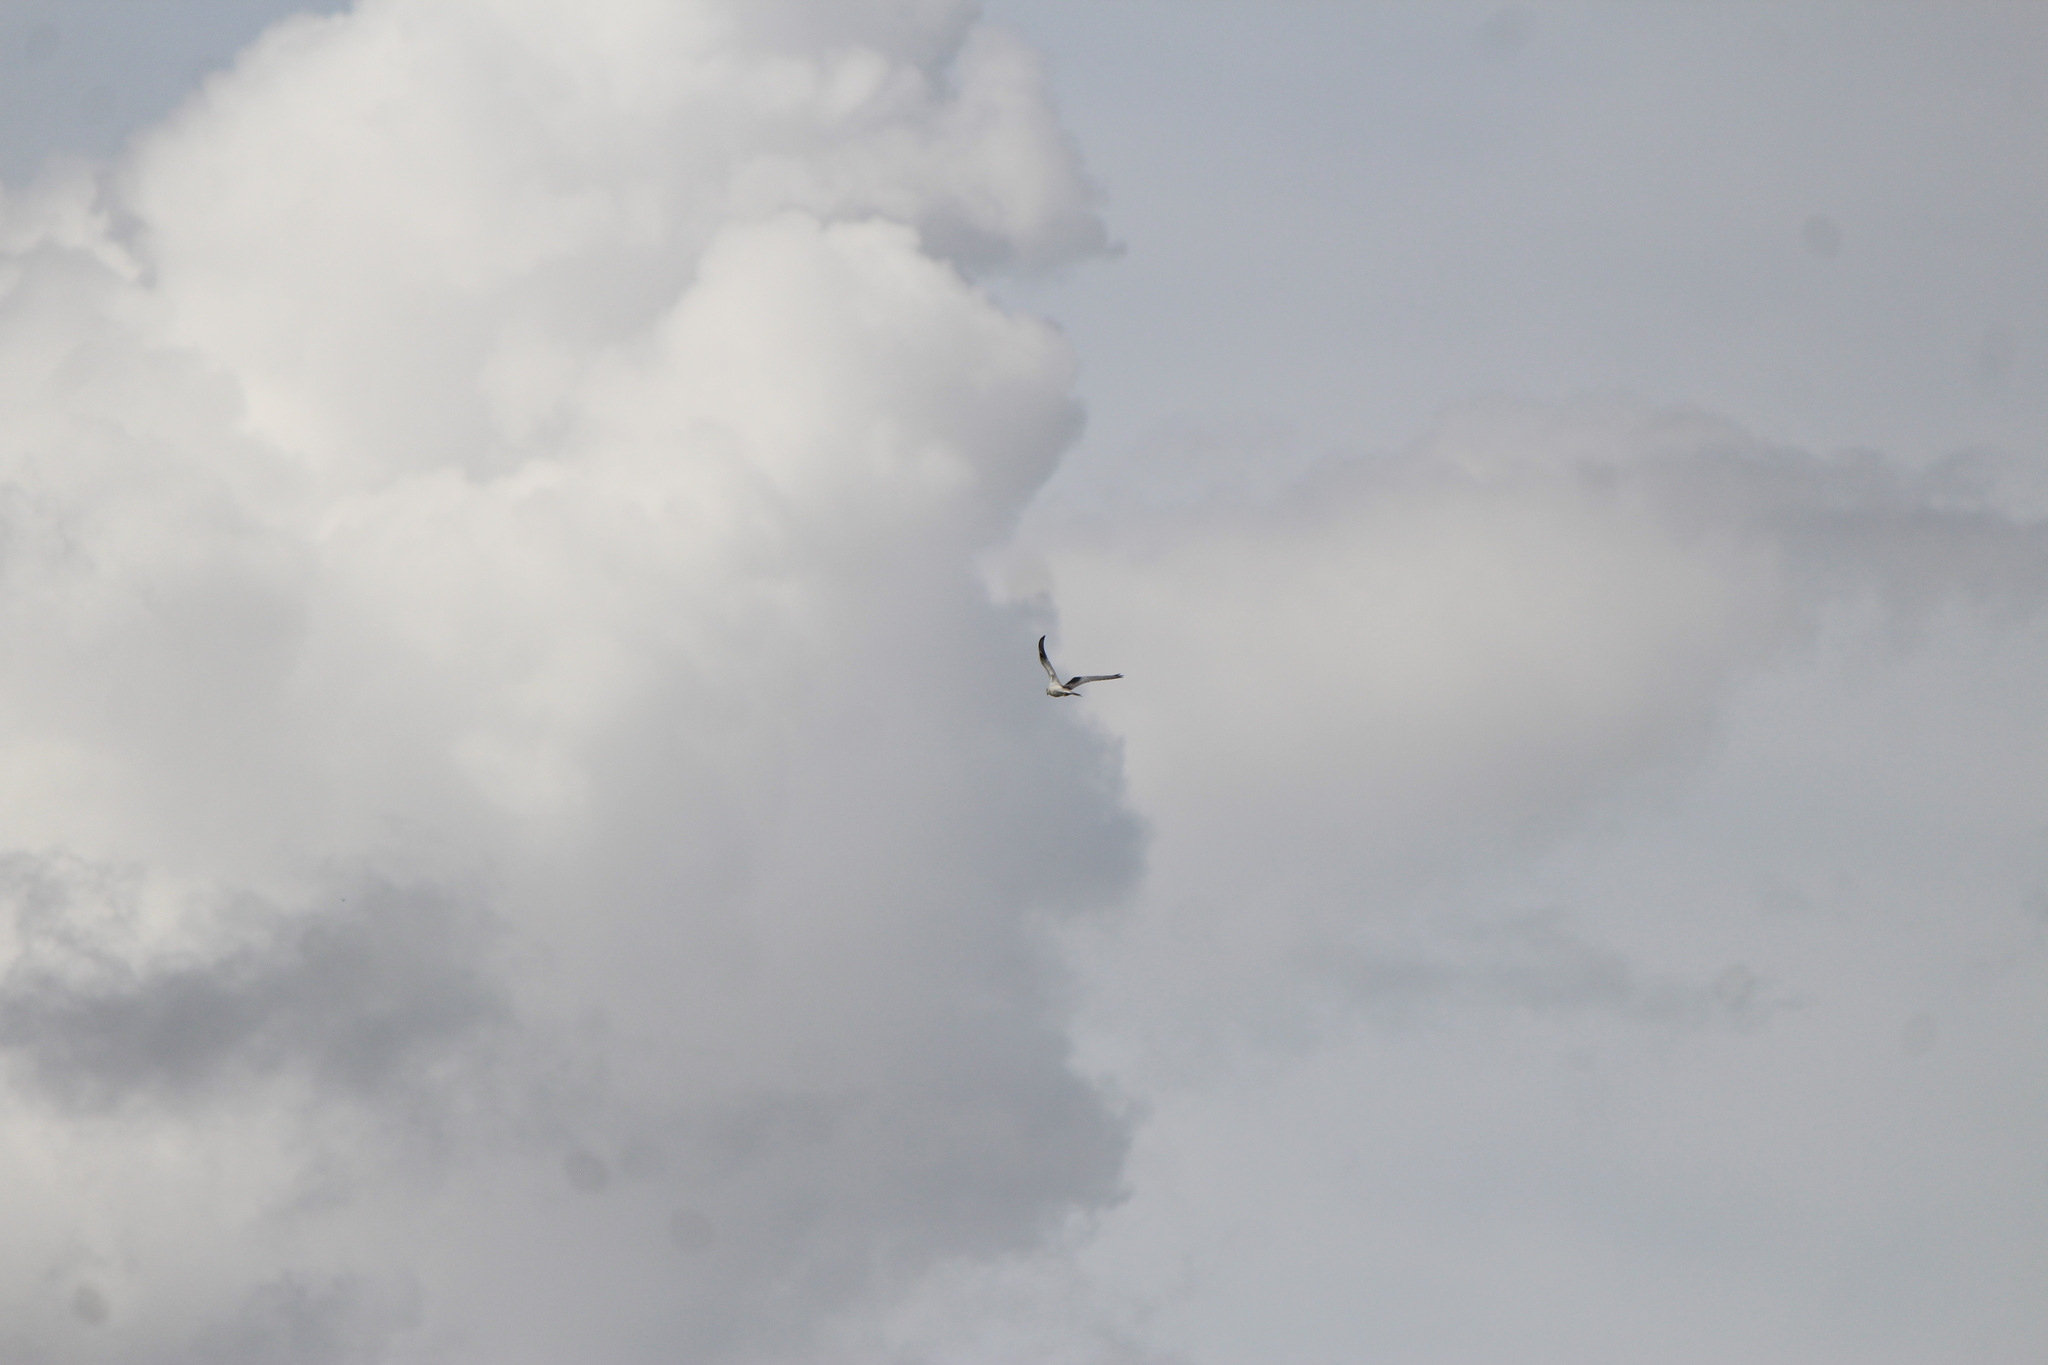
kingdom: Animalia
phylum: Chordata
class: Aves
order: Accipitriformes
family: Accipitridae
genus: Elanus
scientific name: Elanus leucurus
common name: White-tailed kite
